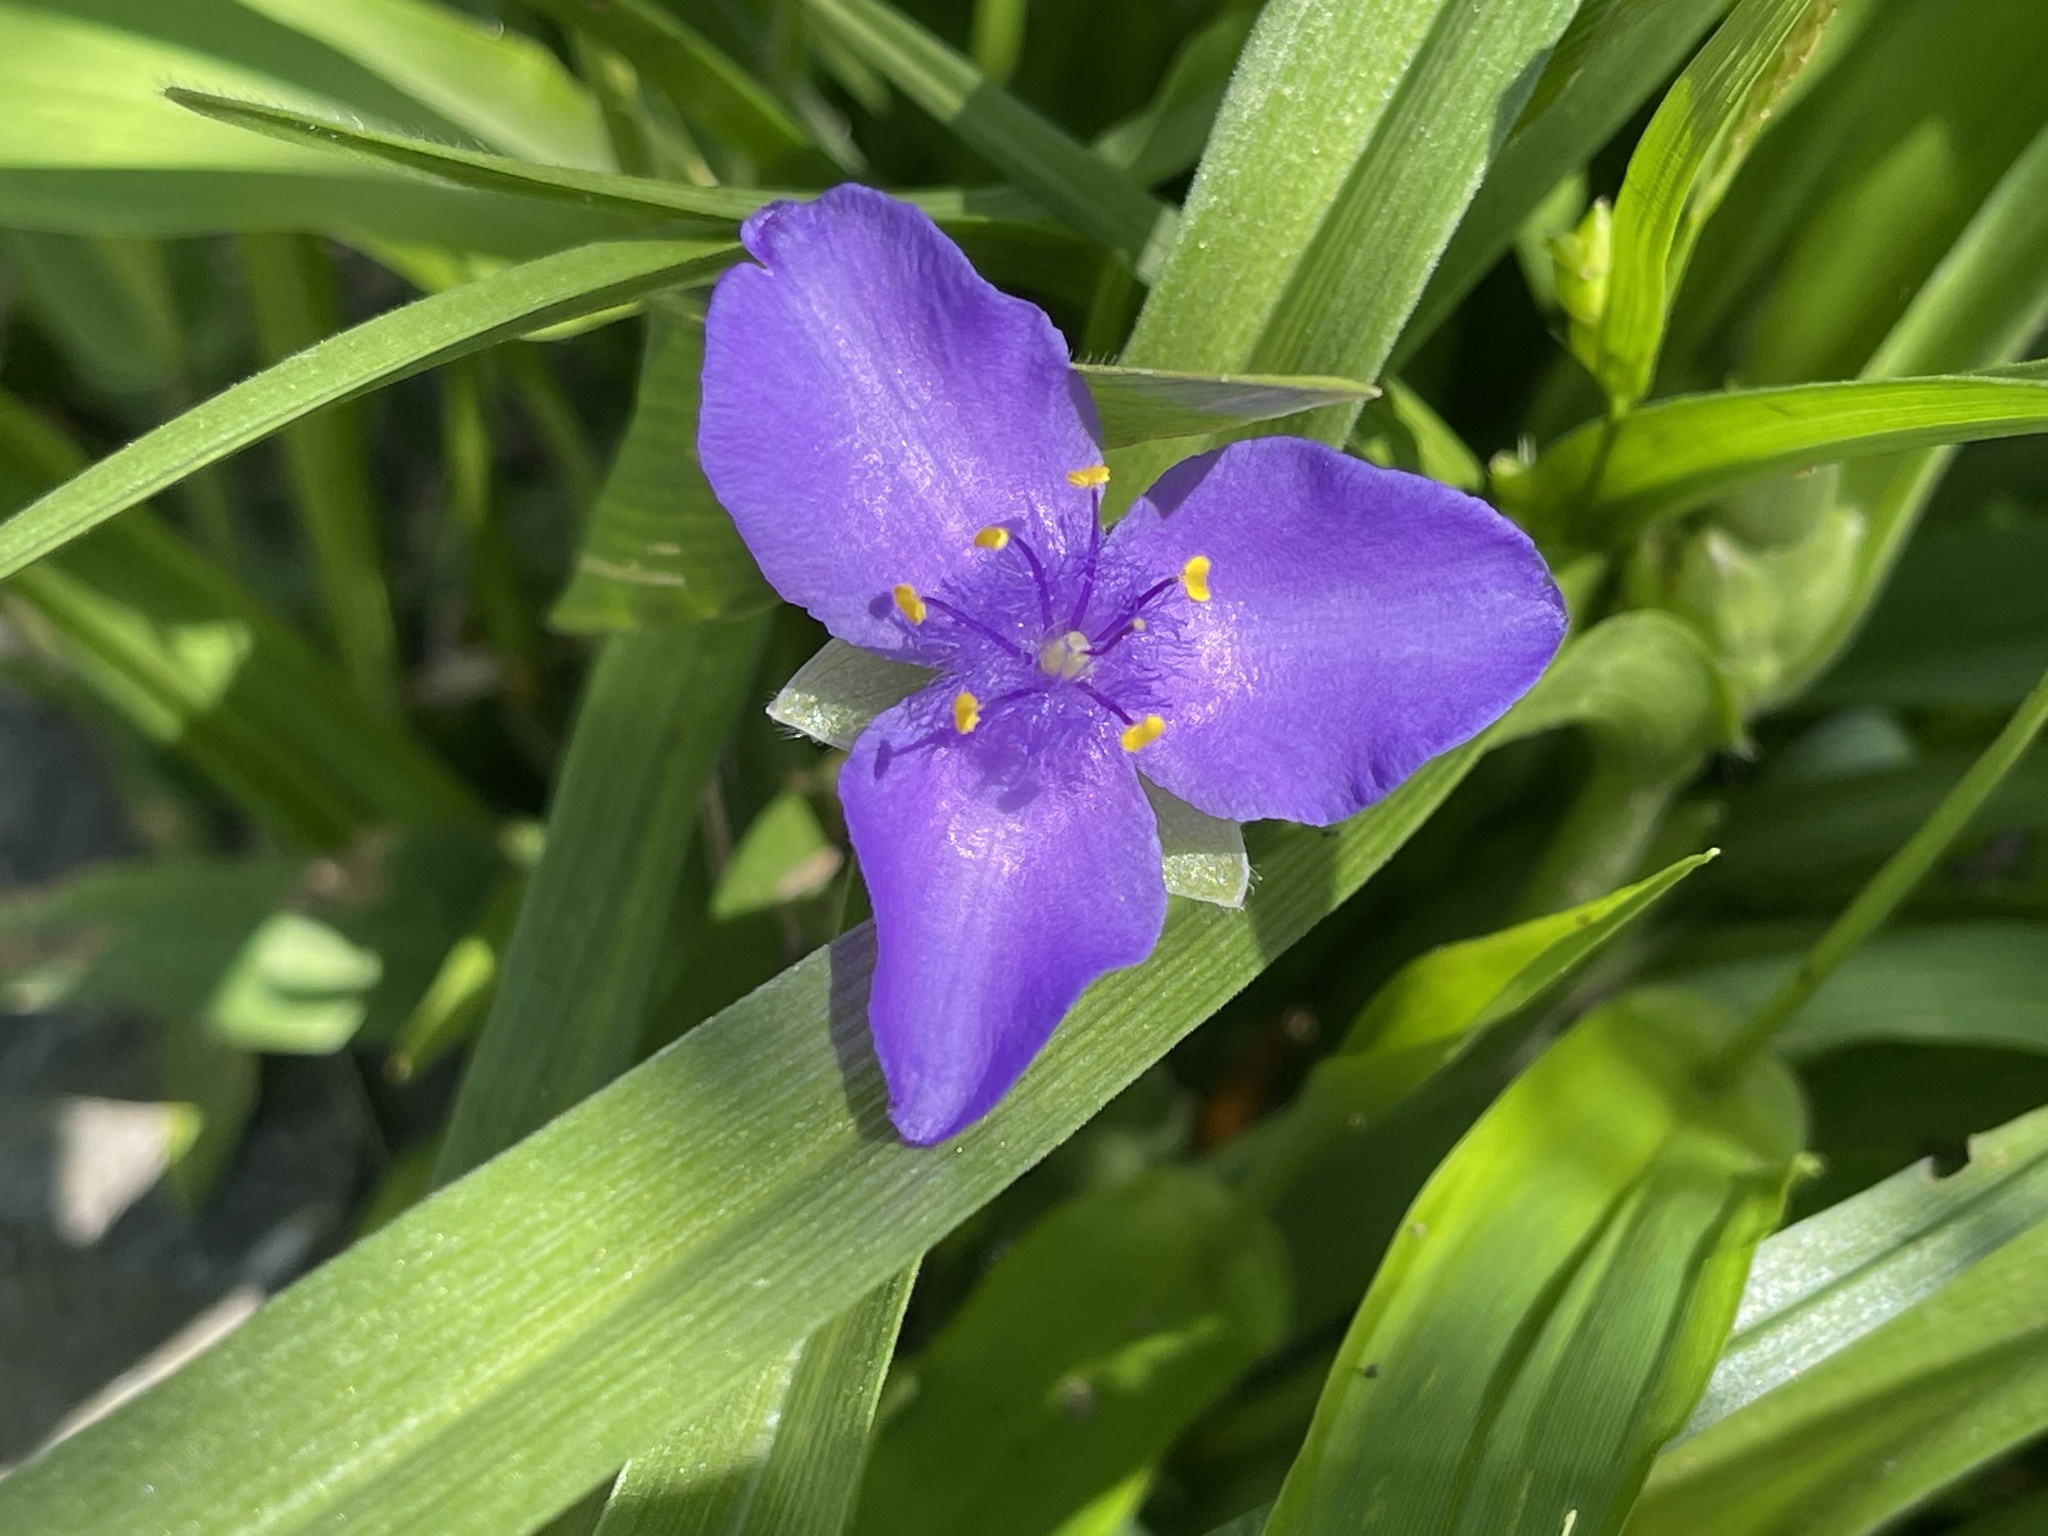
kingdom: Plantae
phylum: Tracheophyta
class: Liliopsida
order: Commelinales
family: Commelinaceae
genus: Tradescantia
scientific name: Tradescantia virginiana
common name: Spiderwort
